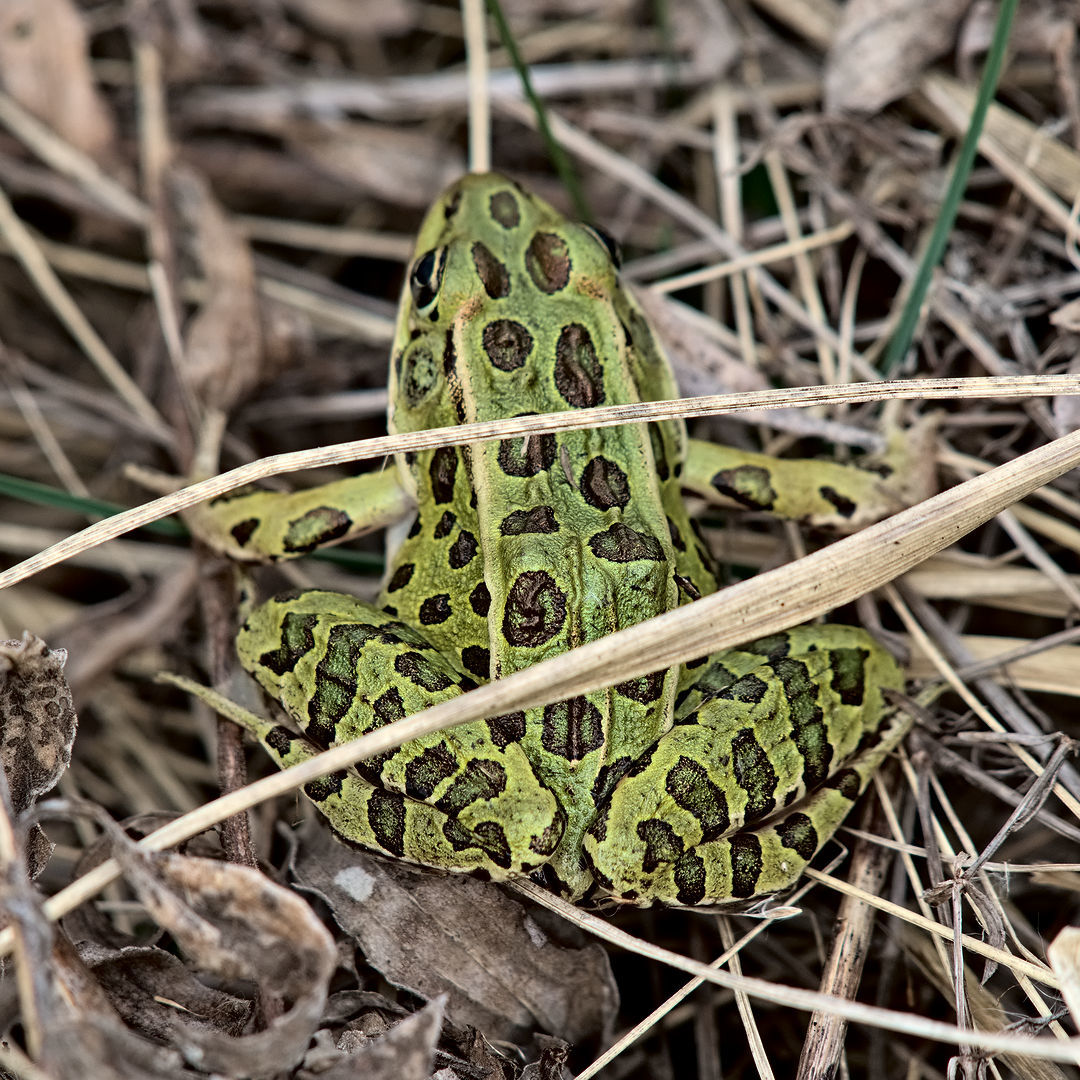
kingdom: Animalia
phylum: Chordata
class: Amphibia
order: Anura
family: Ranidae
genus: Lithobates
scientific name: Lithobates pipiens
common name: Northern leopard frog
